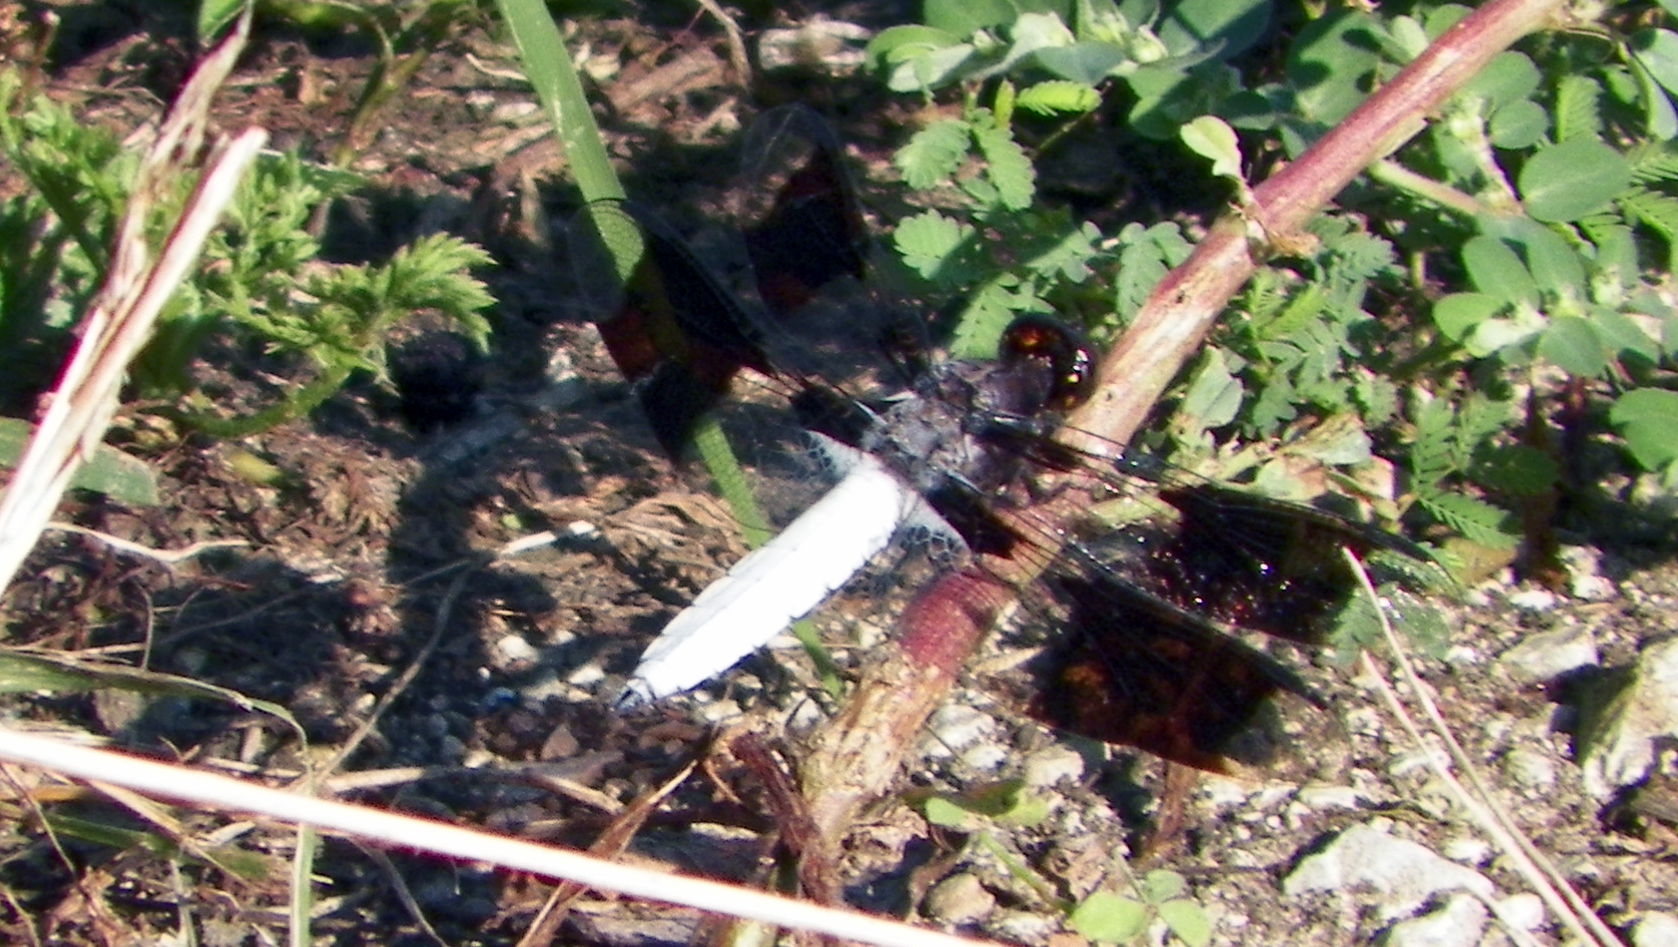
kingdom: Animalia
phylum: Arthropoda
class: Insecta
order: Odonata
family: Libellulidae
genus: Plathemis
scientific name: Plathemis lydia
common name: Common whitetail
